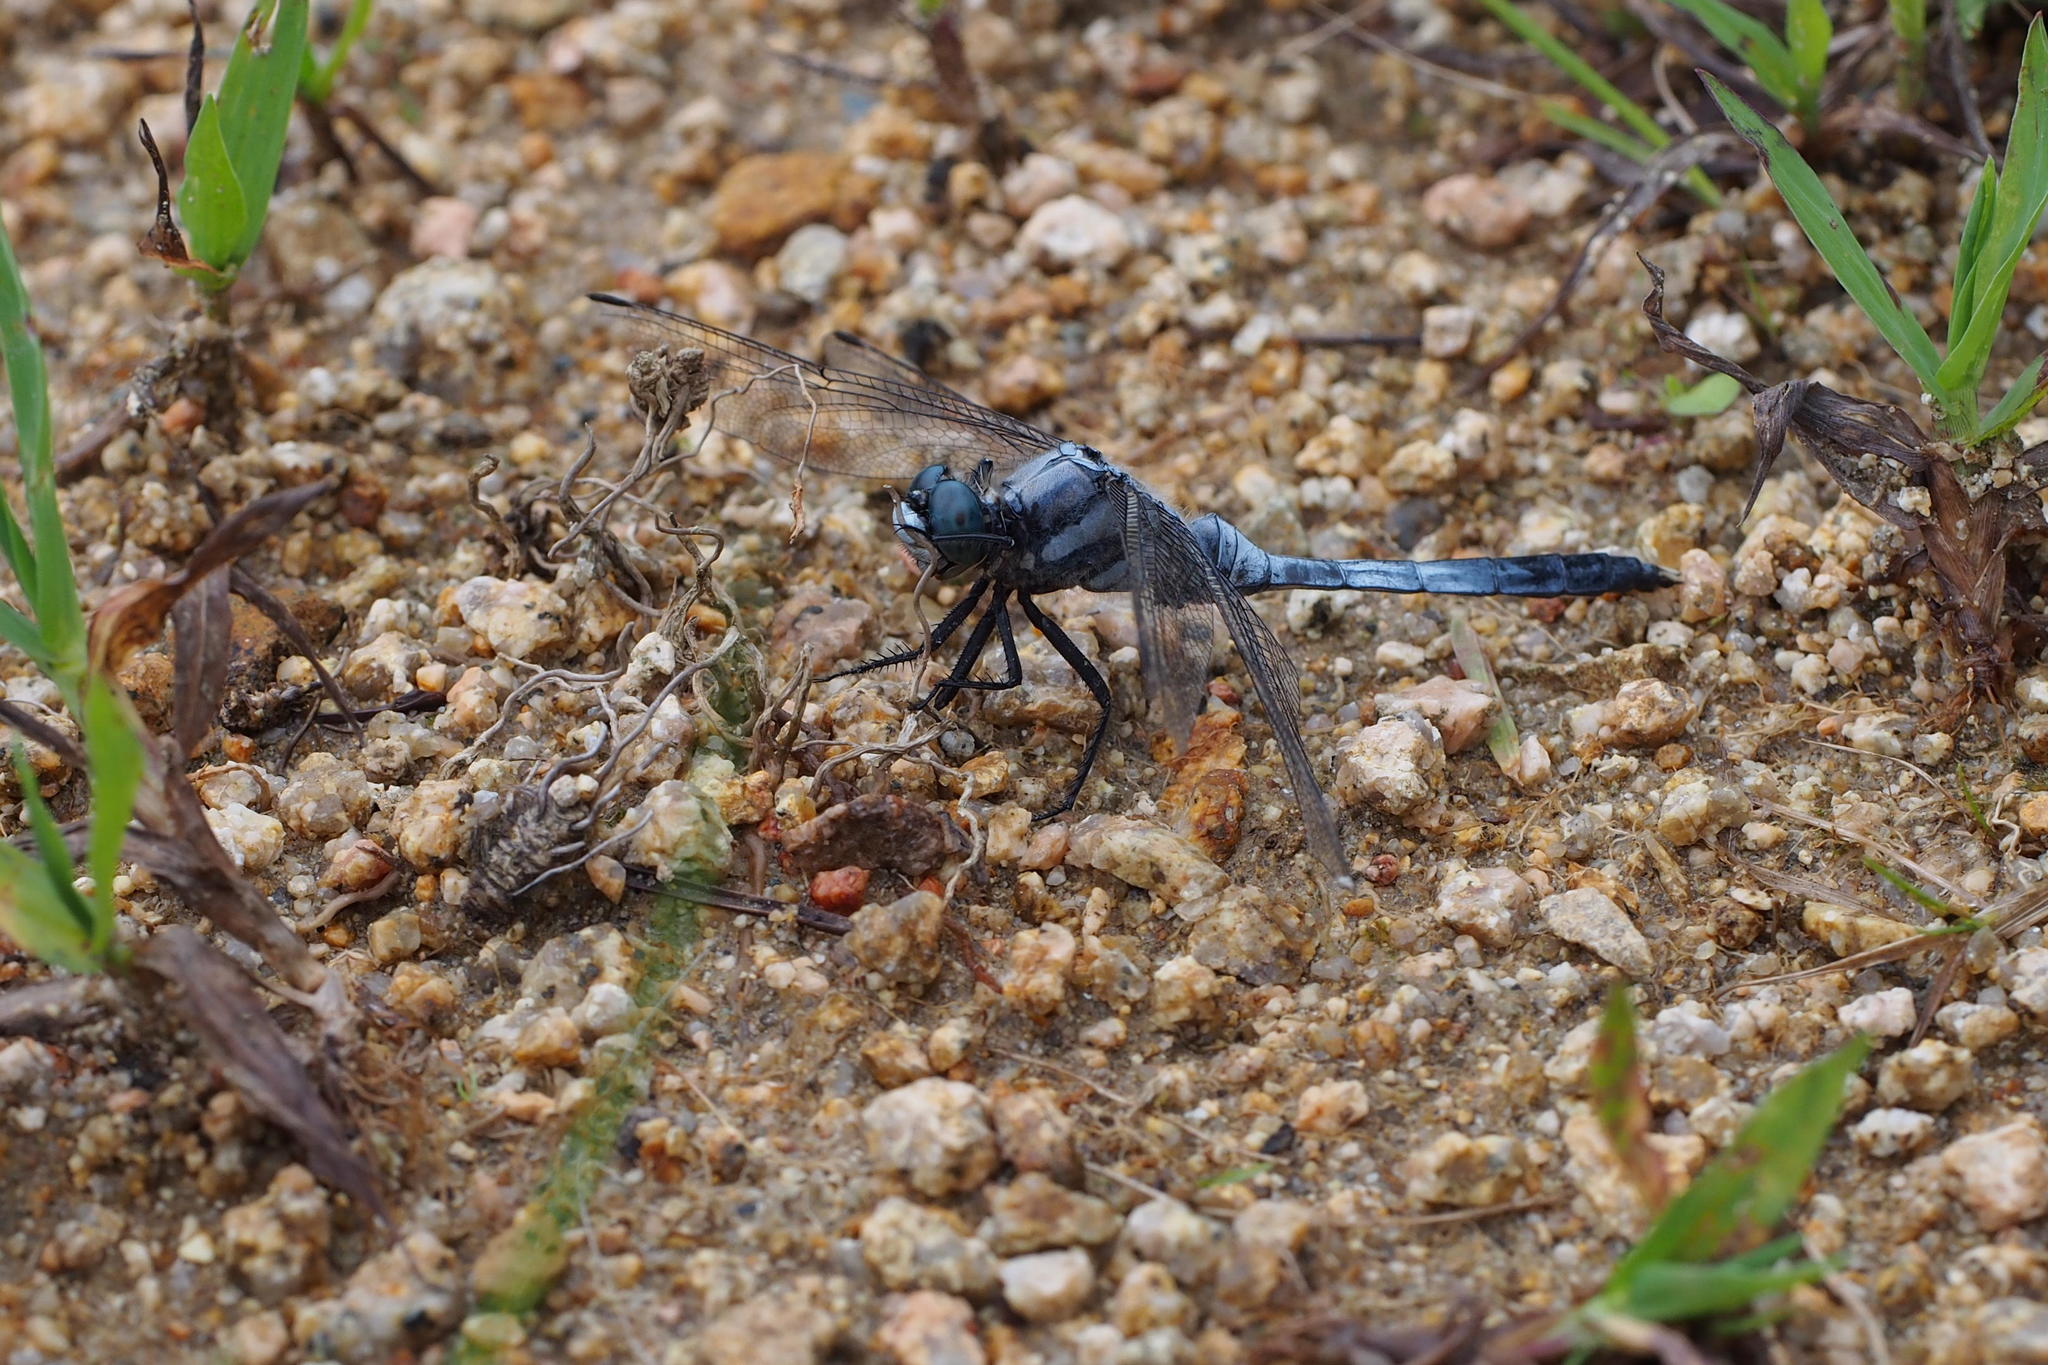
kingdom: Animalia
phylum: Arthropoda
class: Insecta
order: Odonata
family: Libellulidae
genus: Orthetrum
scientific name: Orthetrum albistylum
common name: White-tailed skimmer
